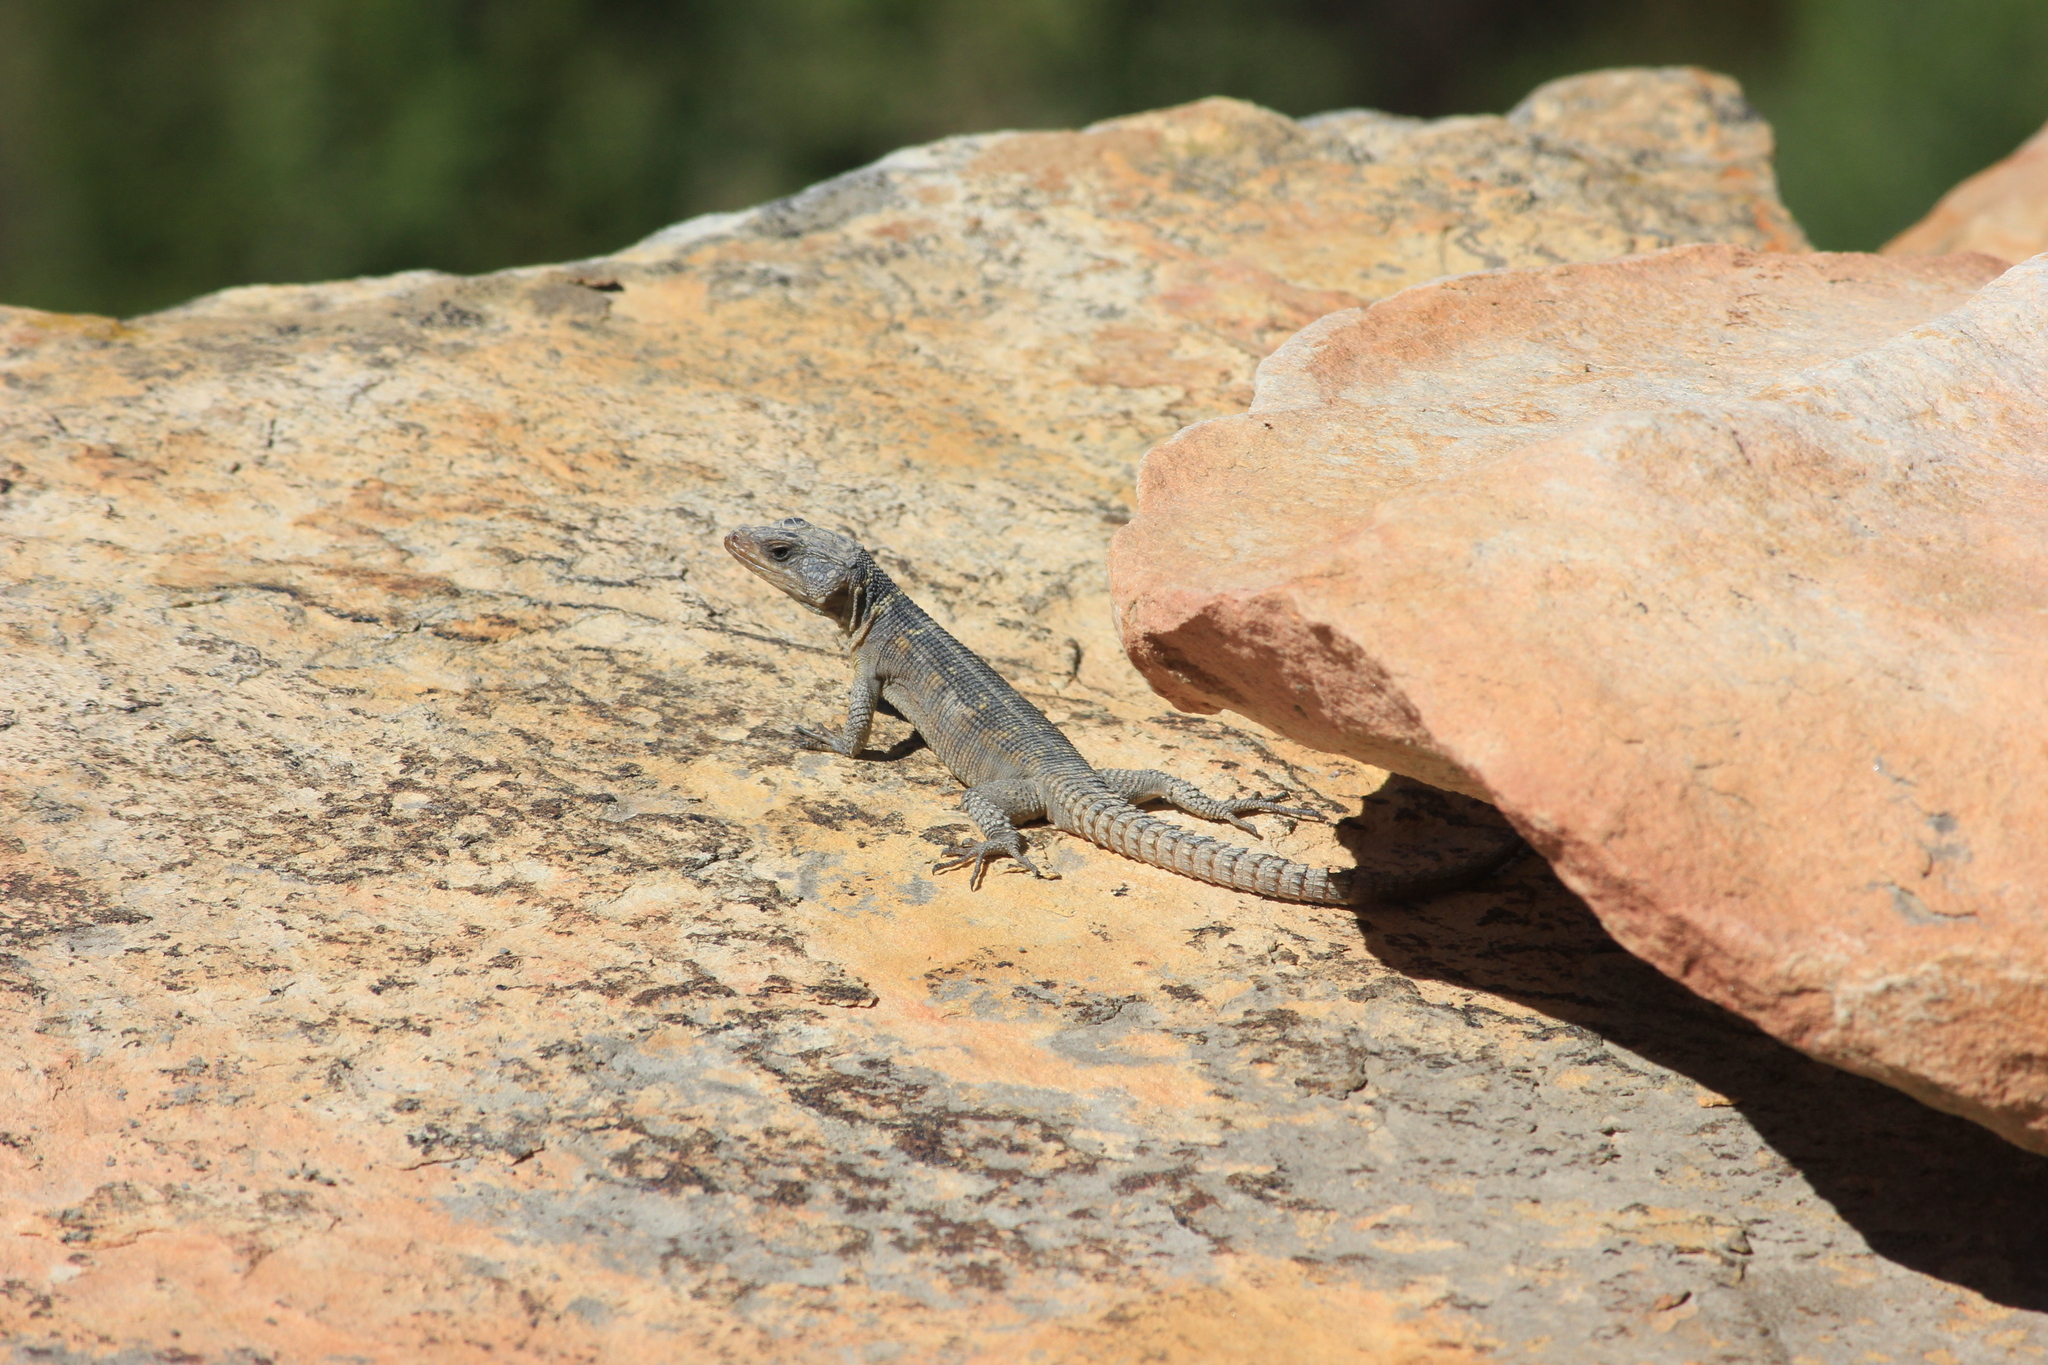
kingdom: Animalia
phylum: Chordata
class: Squamata
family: Cordylidae
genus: Pseudocordylus
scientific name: Pseudocordylus microlepidotus
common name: Cape crag lizard
